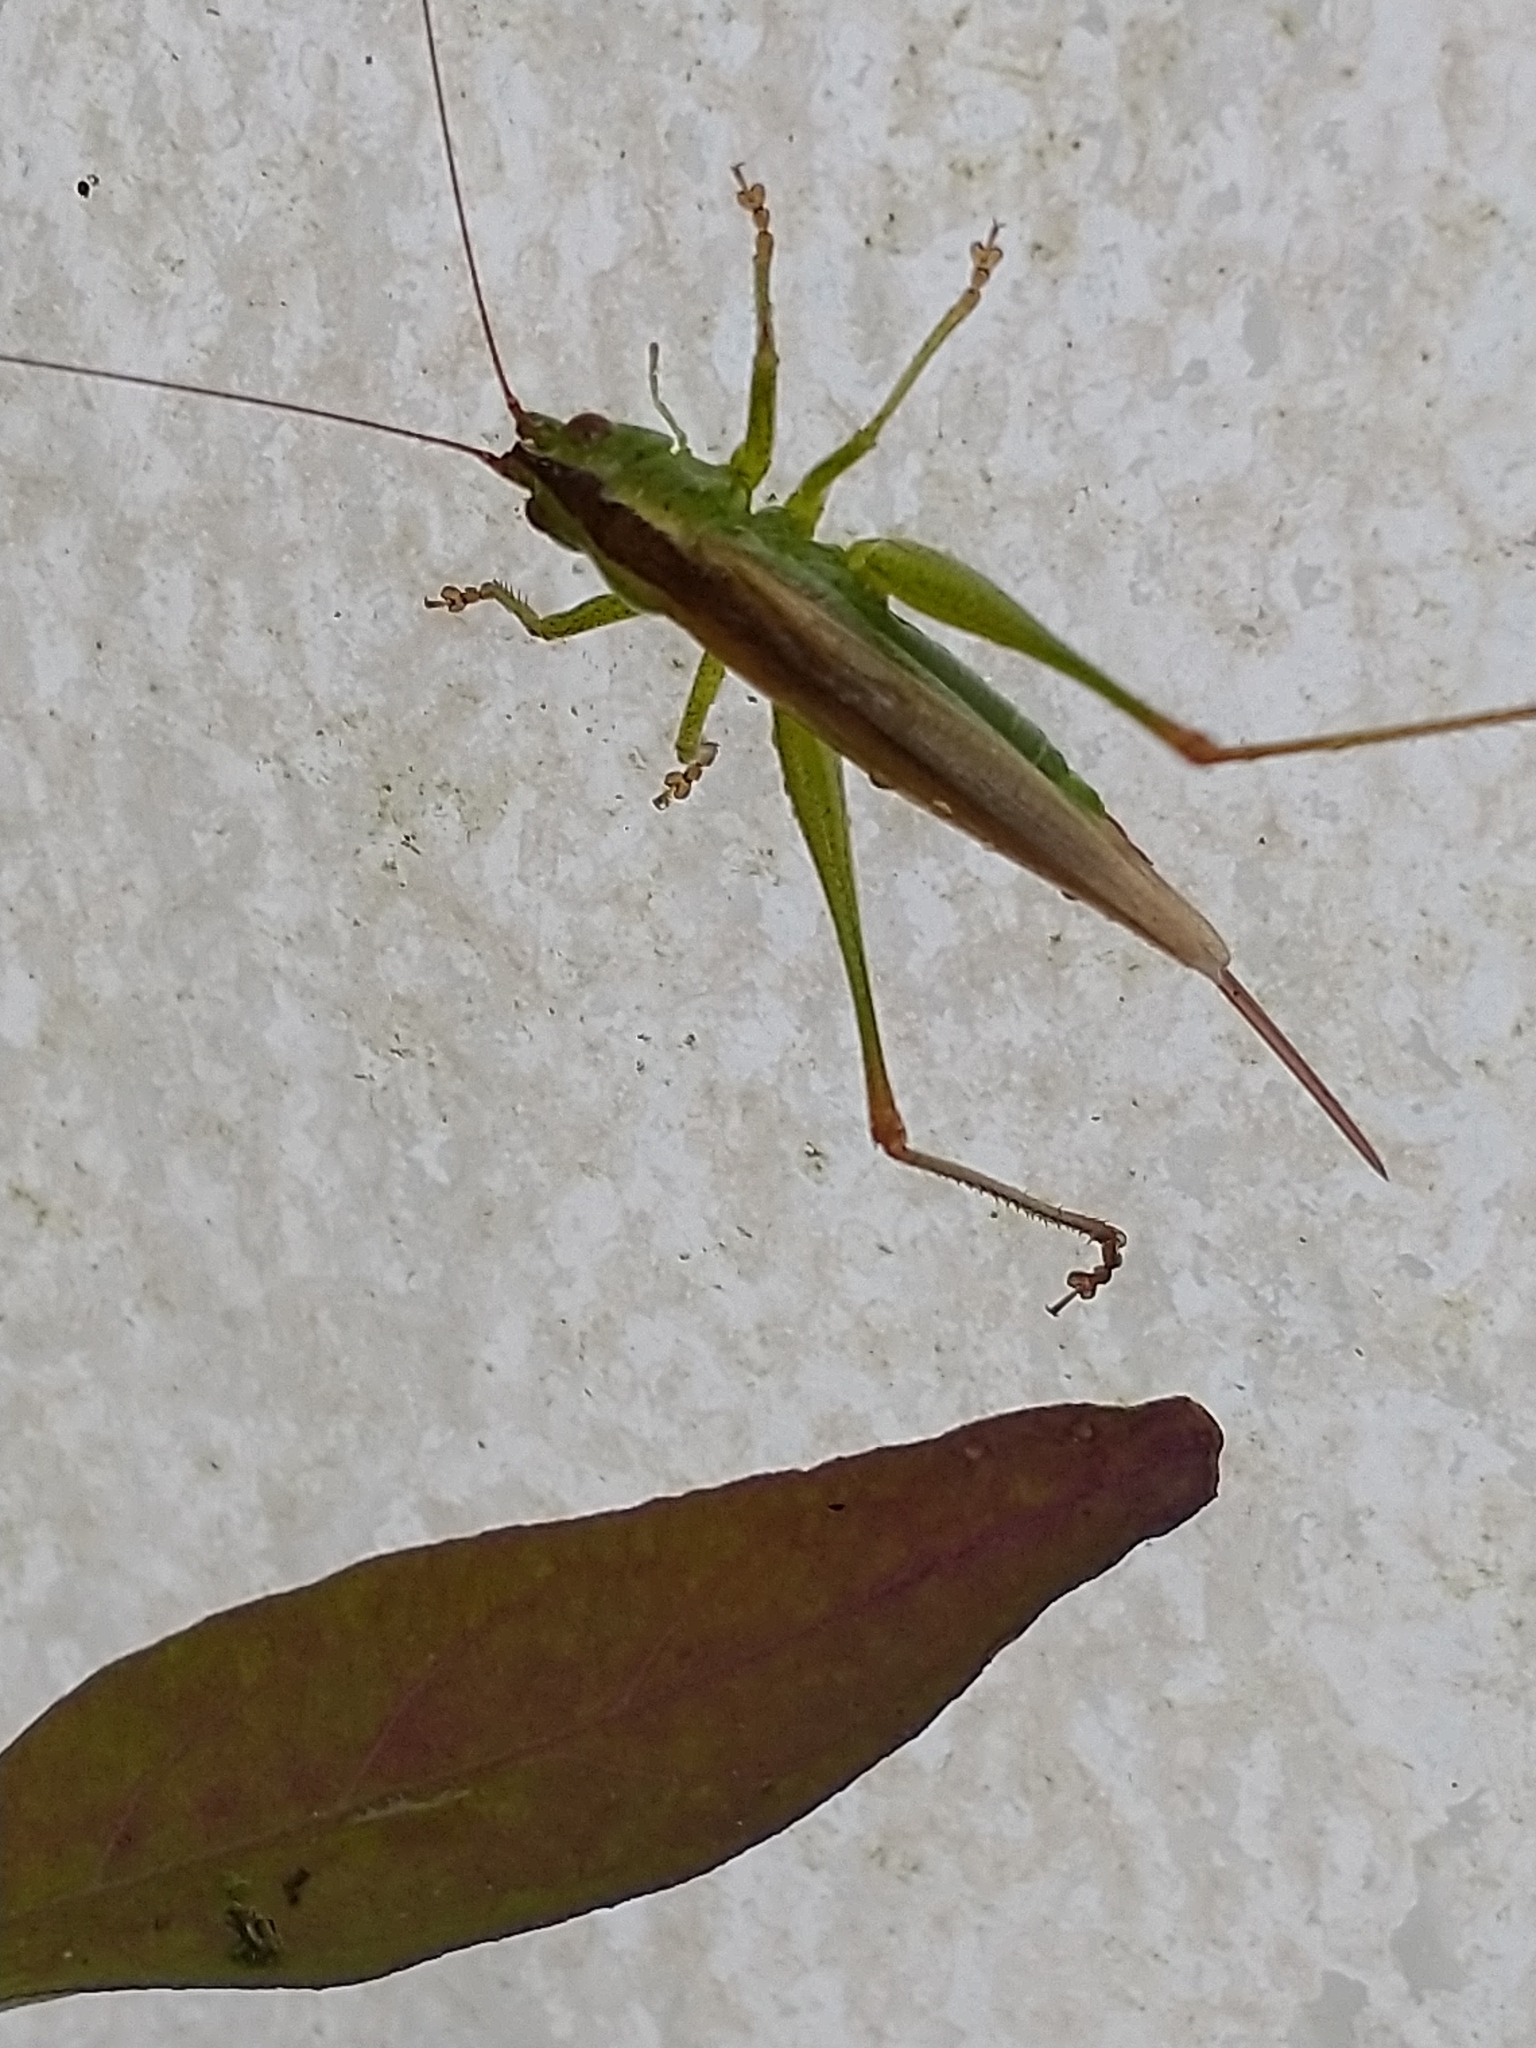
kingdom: Animalia
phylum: Arthropoda
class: Insecta
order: Orthoptera
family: Tettigoniidae
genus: Conocephalus
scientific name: Conocephalus fuscus
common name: Long-winged conehead
